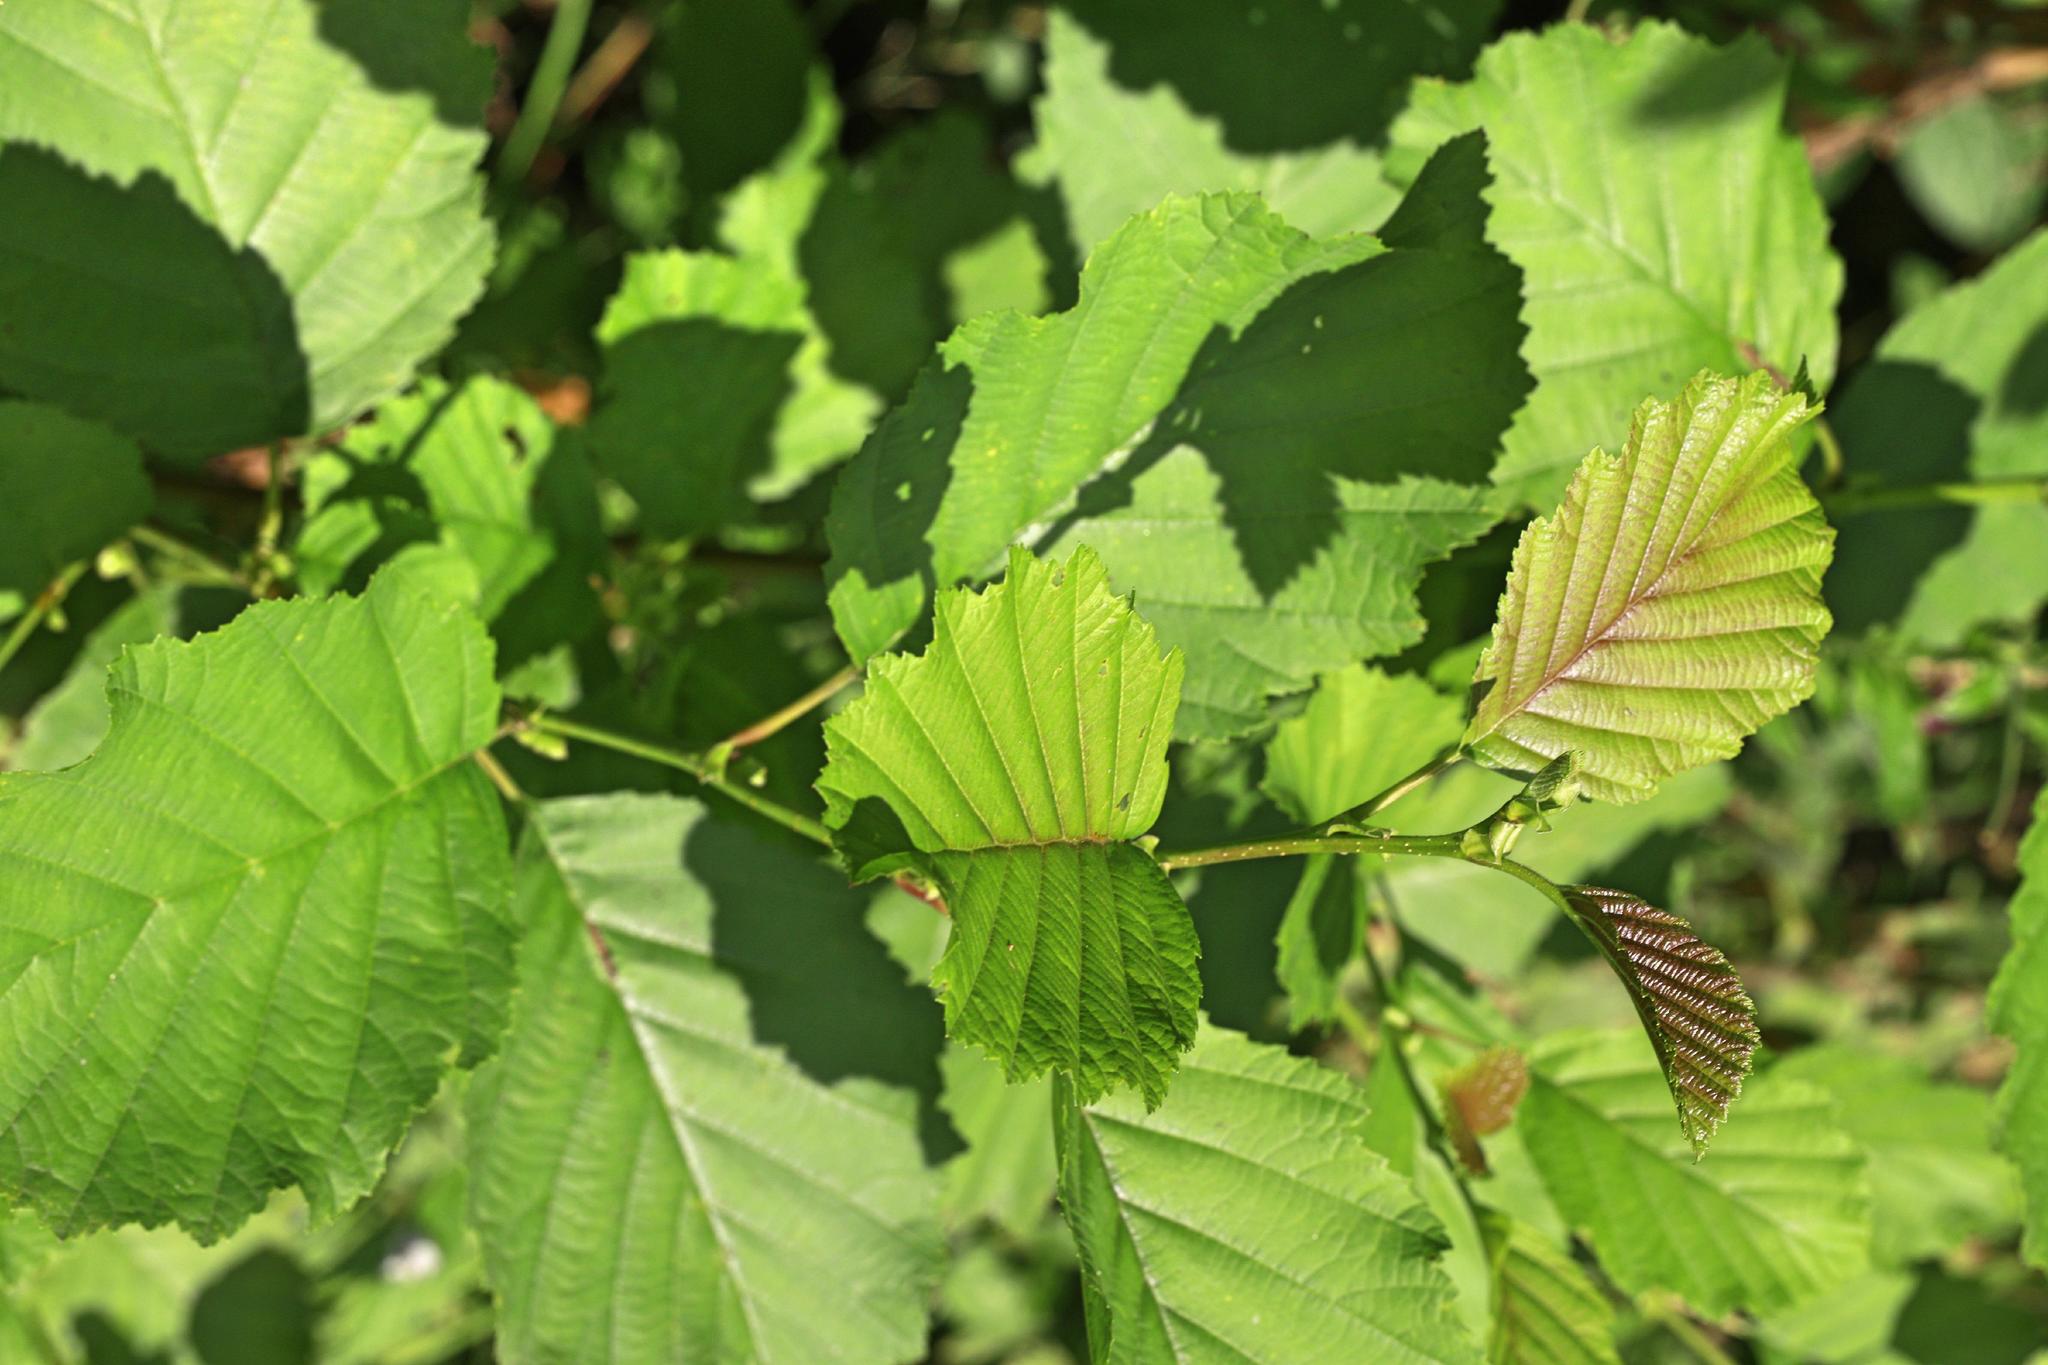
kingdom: Plantae
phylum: Tracheophyta
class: Magnoliopsida
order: Fagales
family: Betulaceae
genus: Alnus
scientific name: Alnus glutinosa
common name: Black alder
